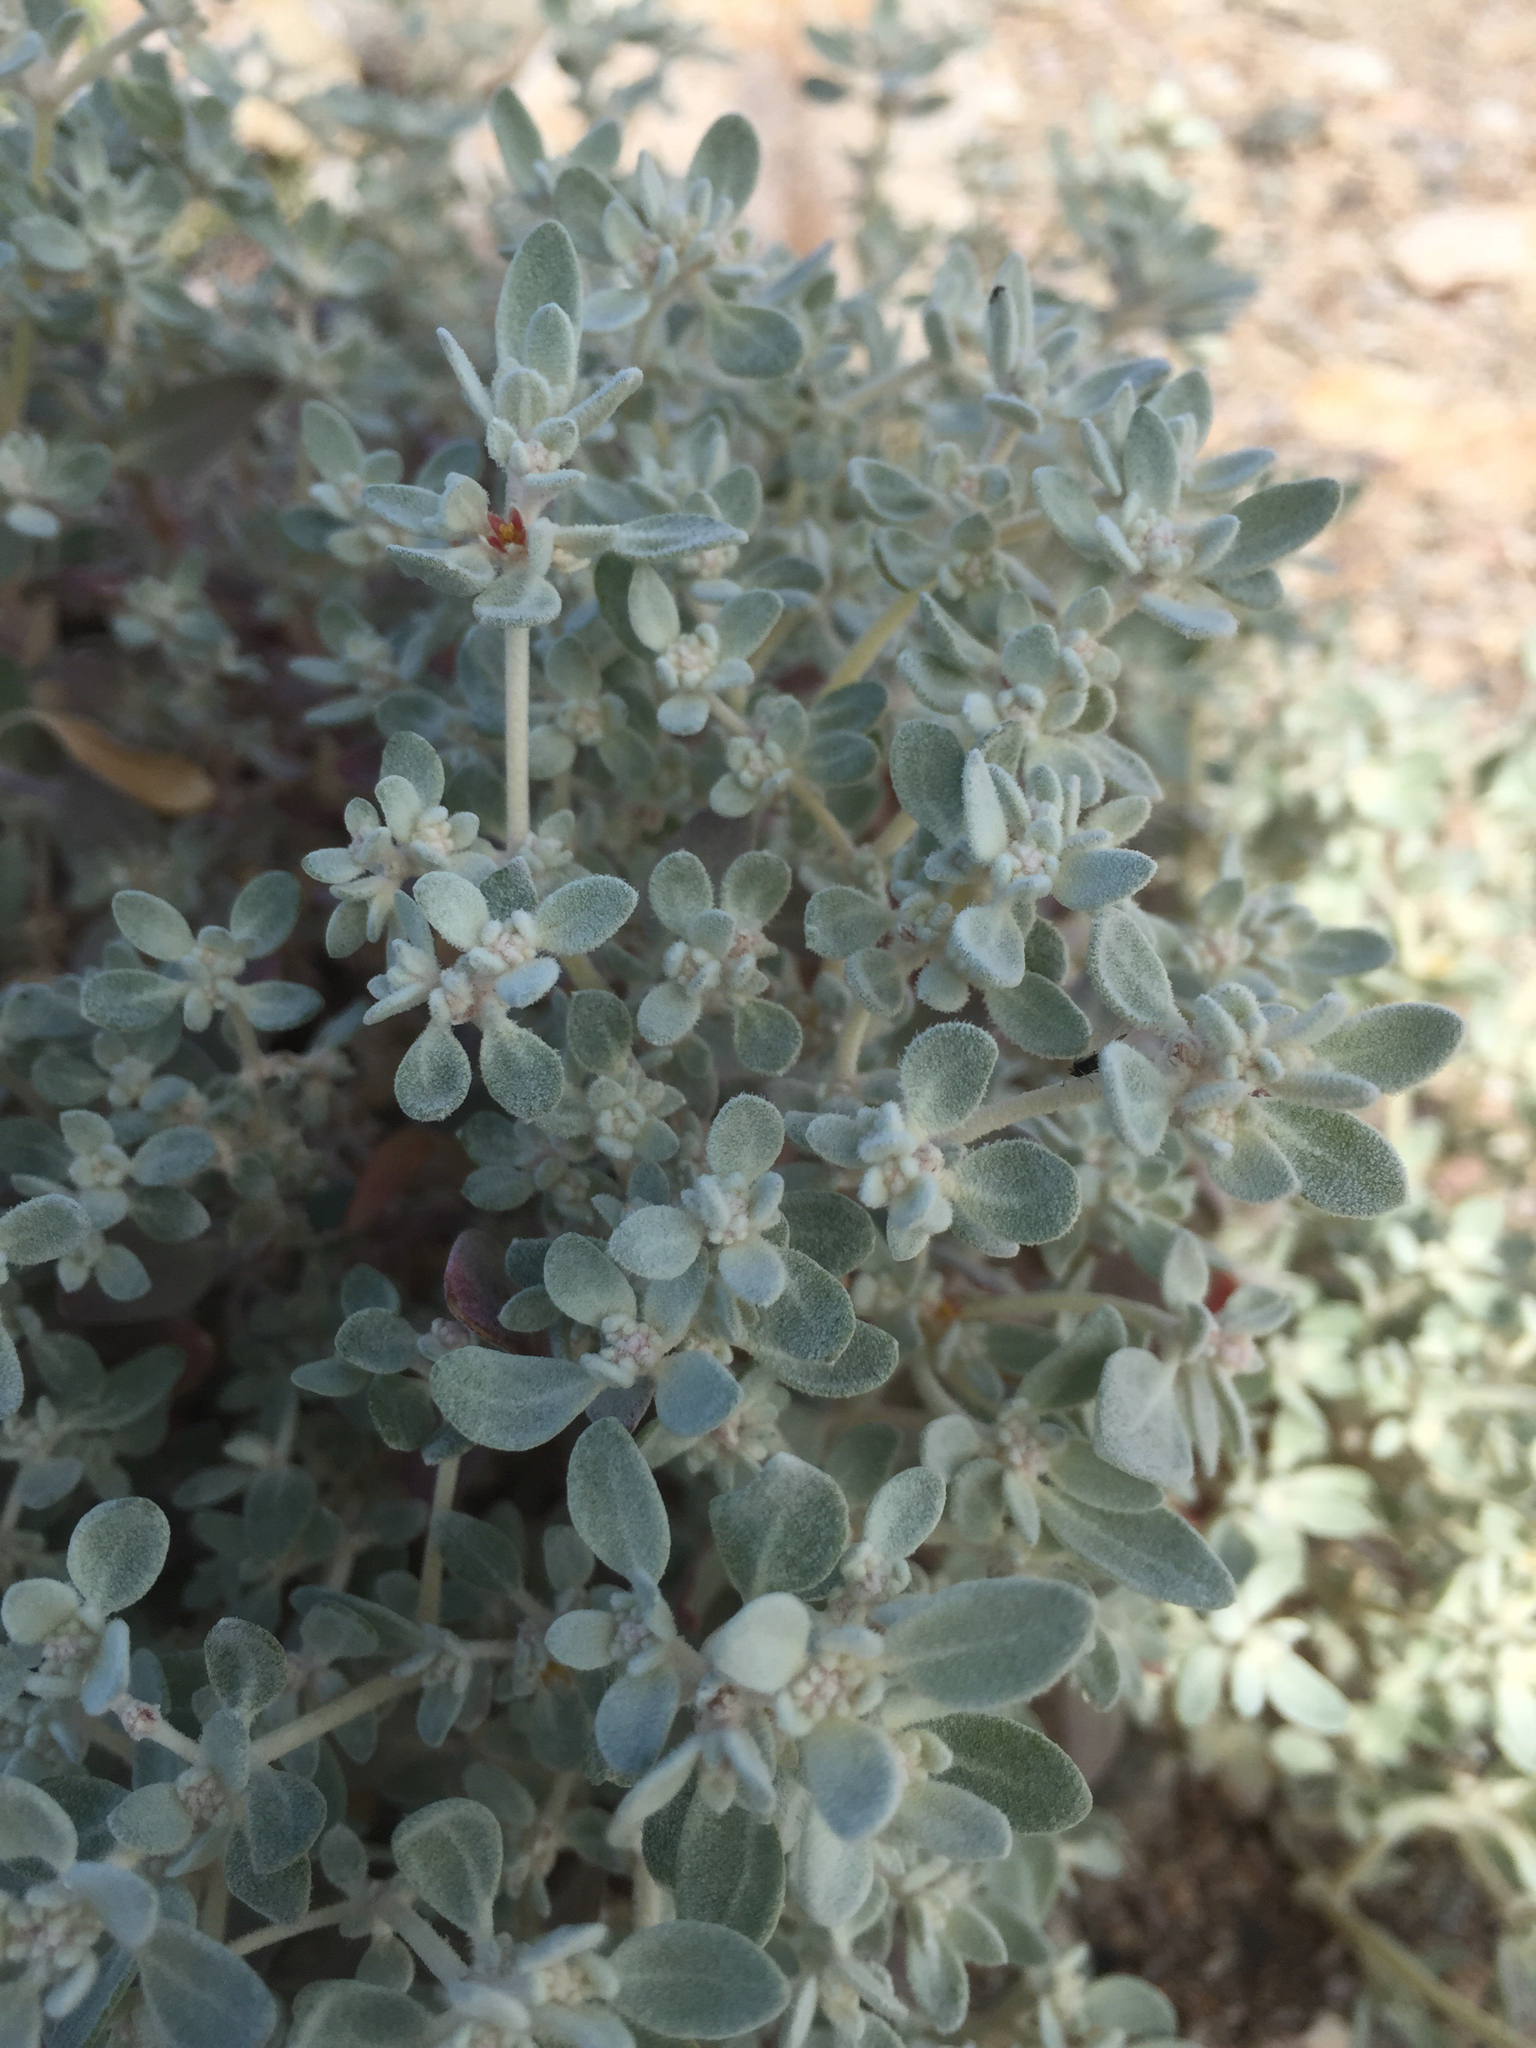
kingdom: Plantae
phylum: Tracheophyta
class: Magnoliopsida
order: Caryophyllales
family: Amaranthaceae
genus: Tidestromia
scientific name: Tidestromia suffruticosa
